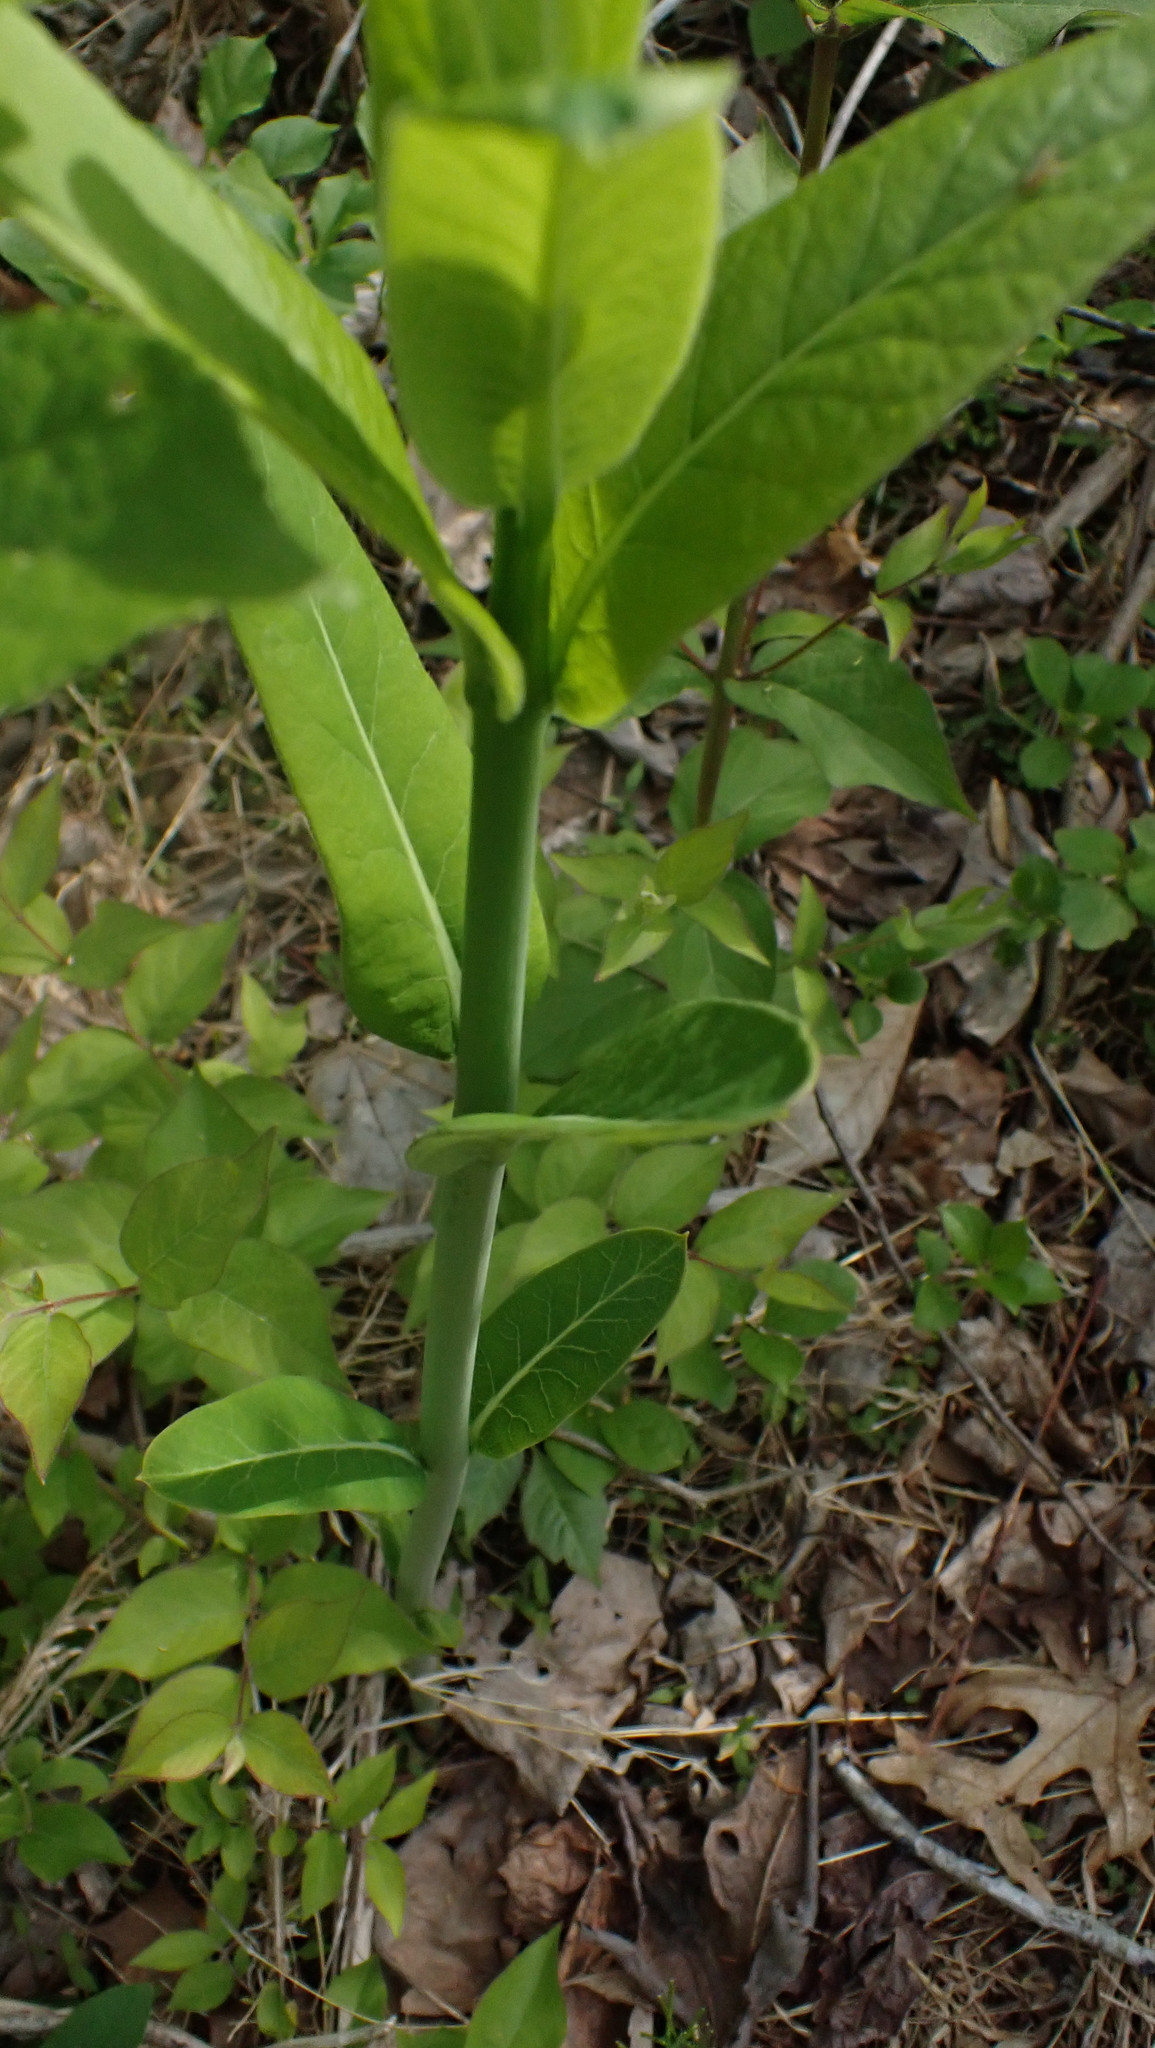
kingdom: Plantae
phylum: Tracheophyta
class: Magnoliopsida
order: Gentianales
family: Apocynaceae
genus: Apocynum
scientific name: Apocynum cannabinum
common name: Hemp dogbane
